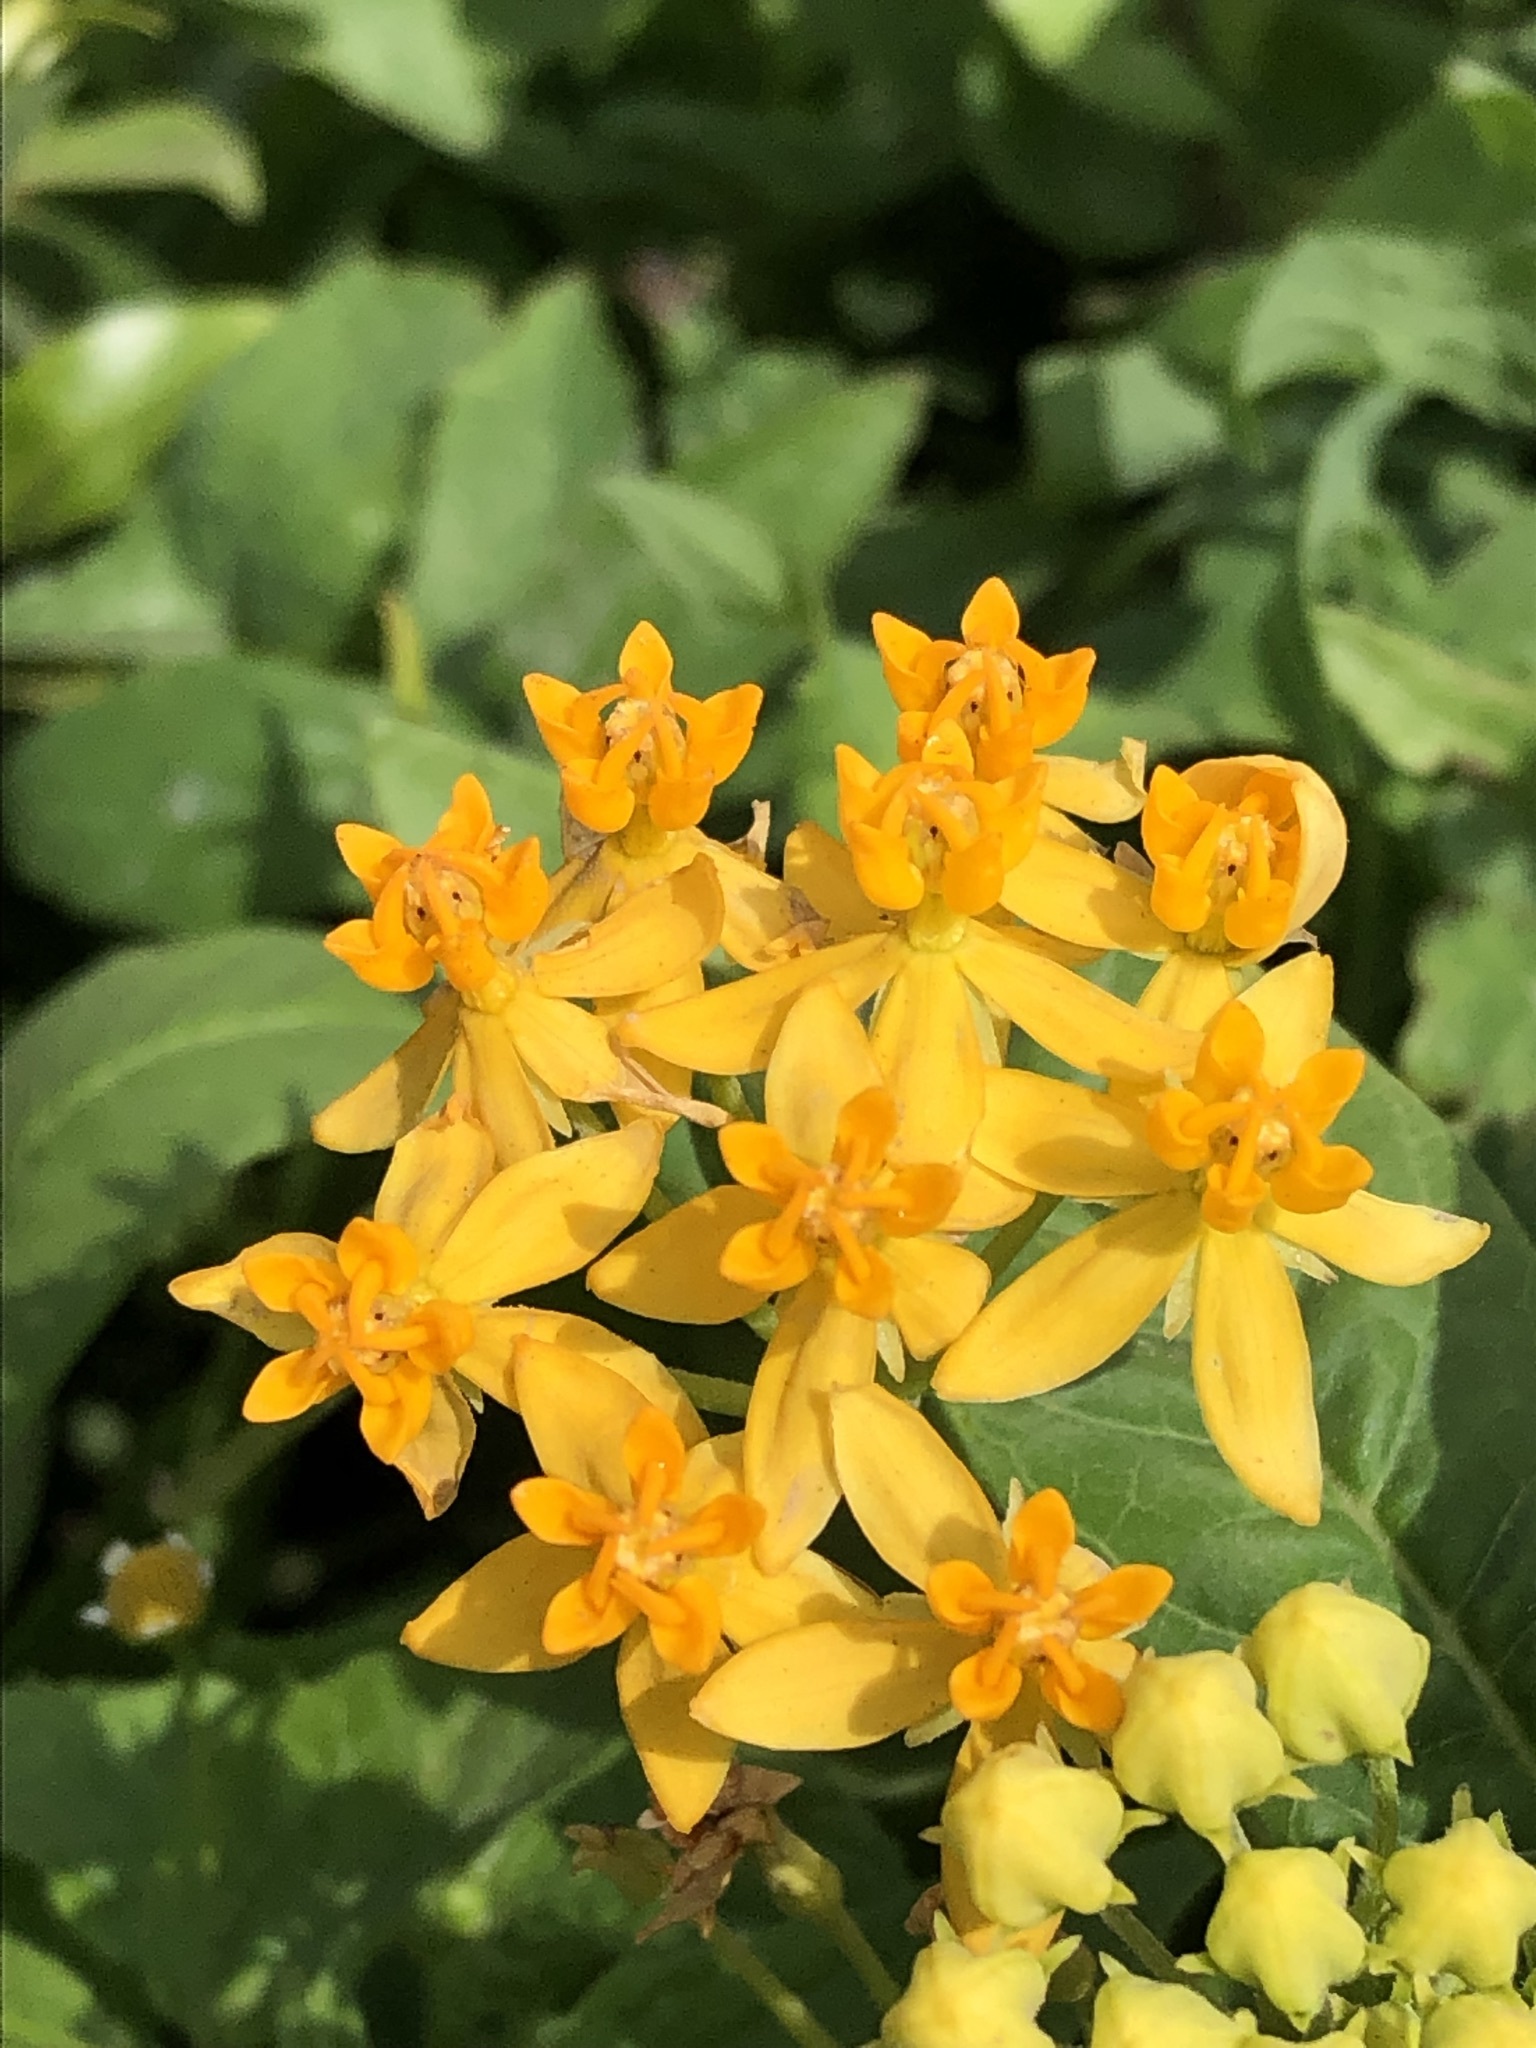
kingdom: Plantae
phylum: Tracheophyta
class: Magnoliopsida
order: Gentianales
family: Apocynaceae
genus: Asclepias
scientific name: Asclepias curassavica
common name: Bloodflower
